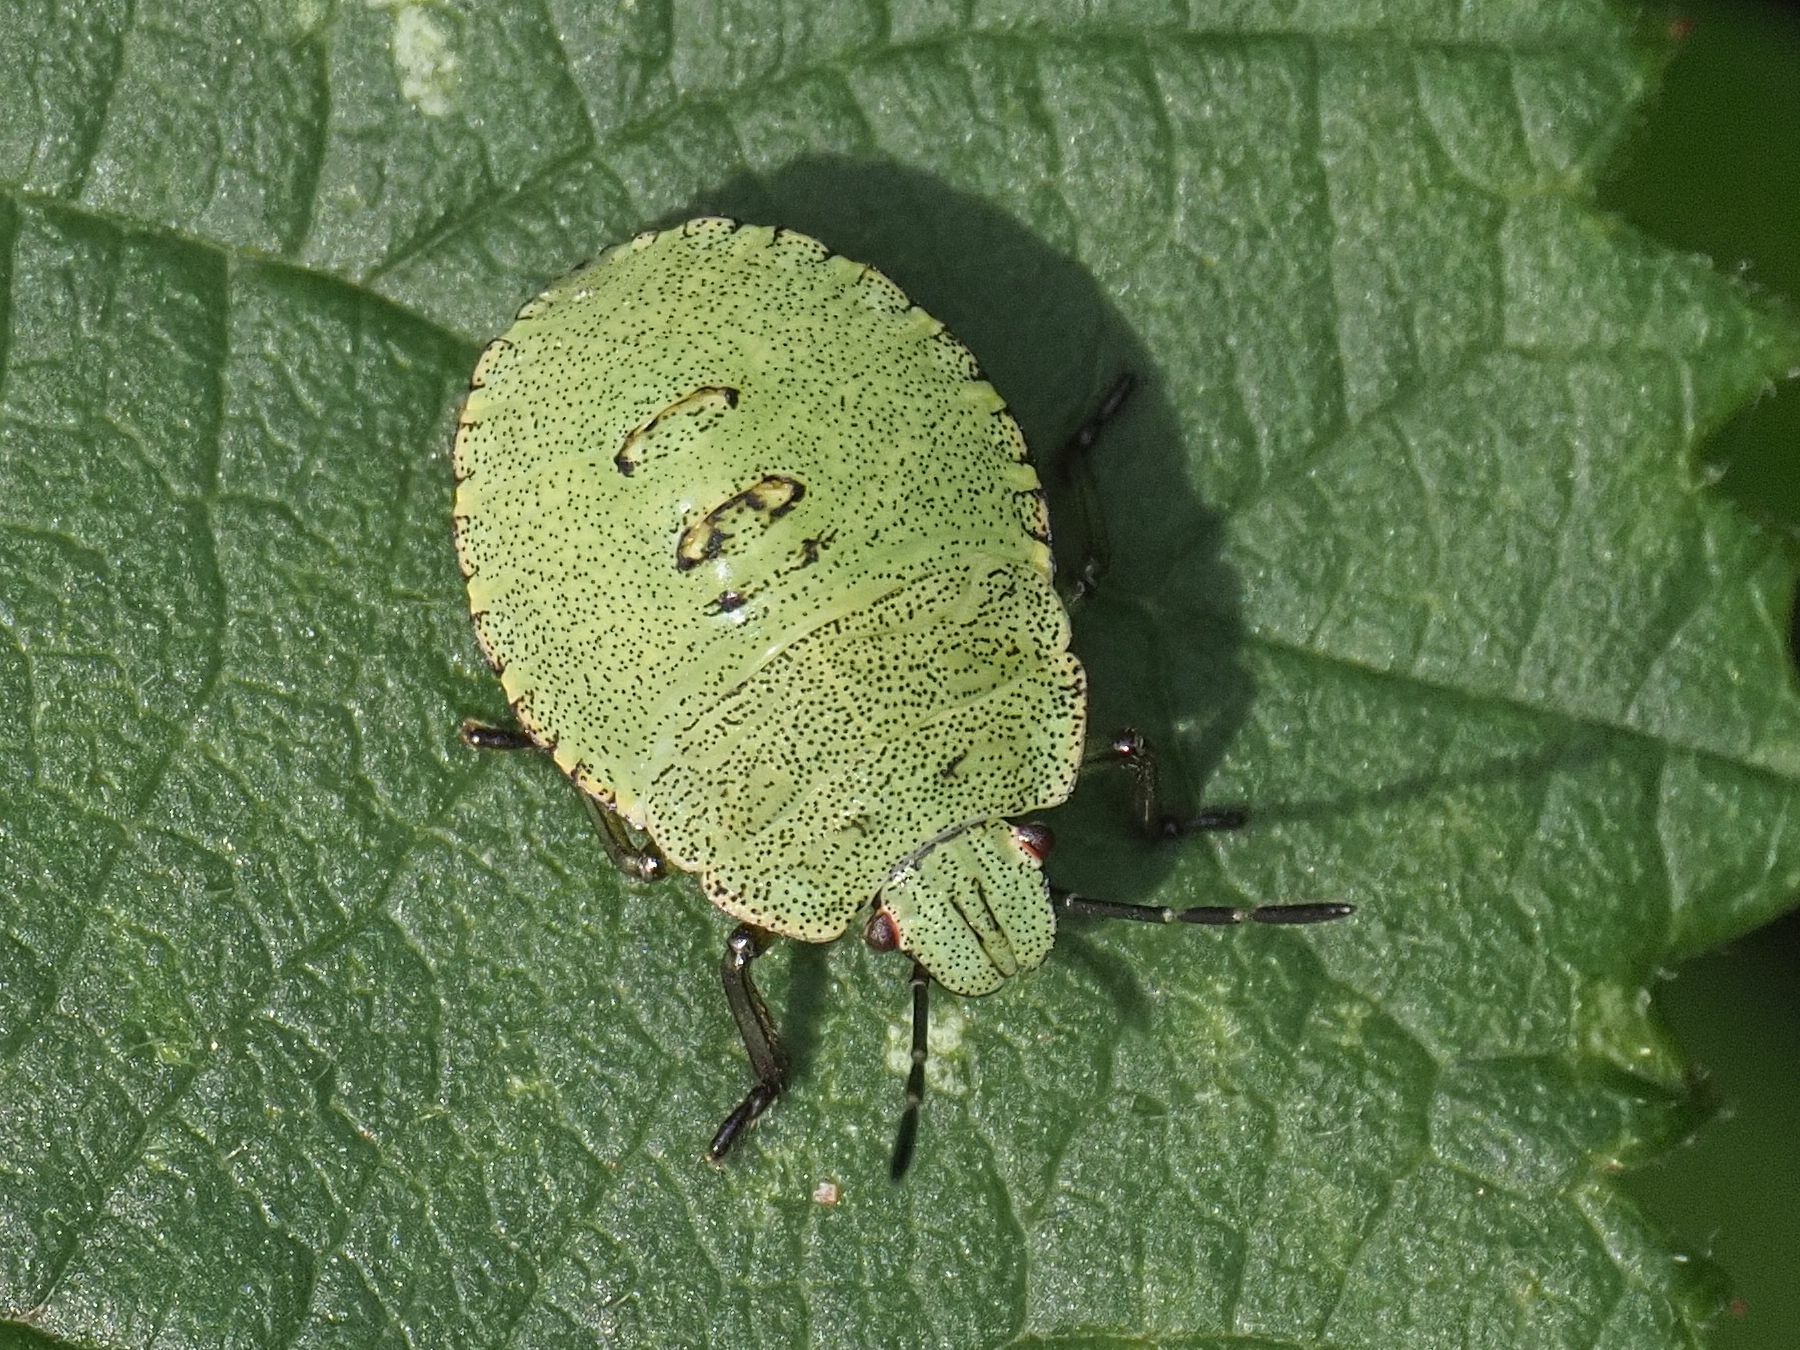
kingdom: Animalia
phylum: Arthropoda
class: Insecta
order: Hemiptera
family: Pentatomidae
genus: Palomena
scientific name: Palomena prasina
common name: Green shieldbug
